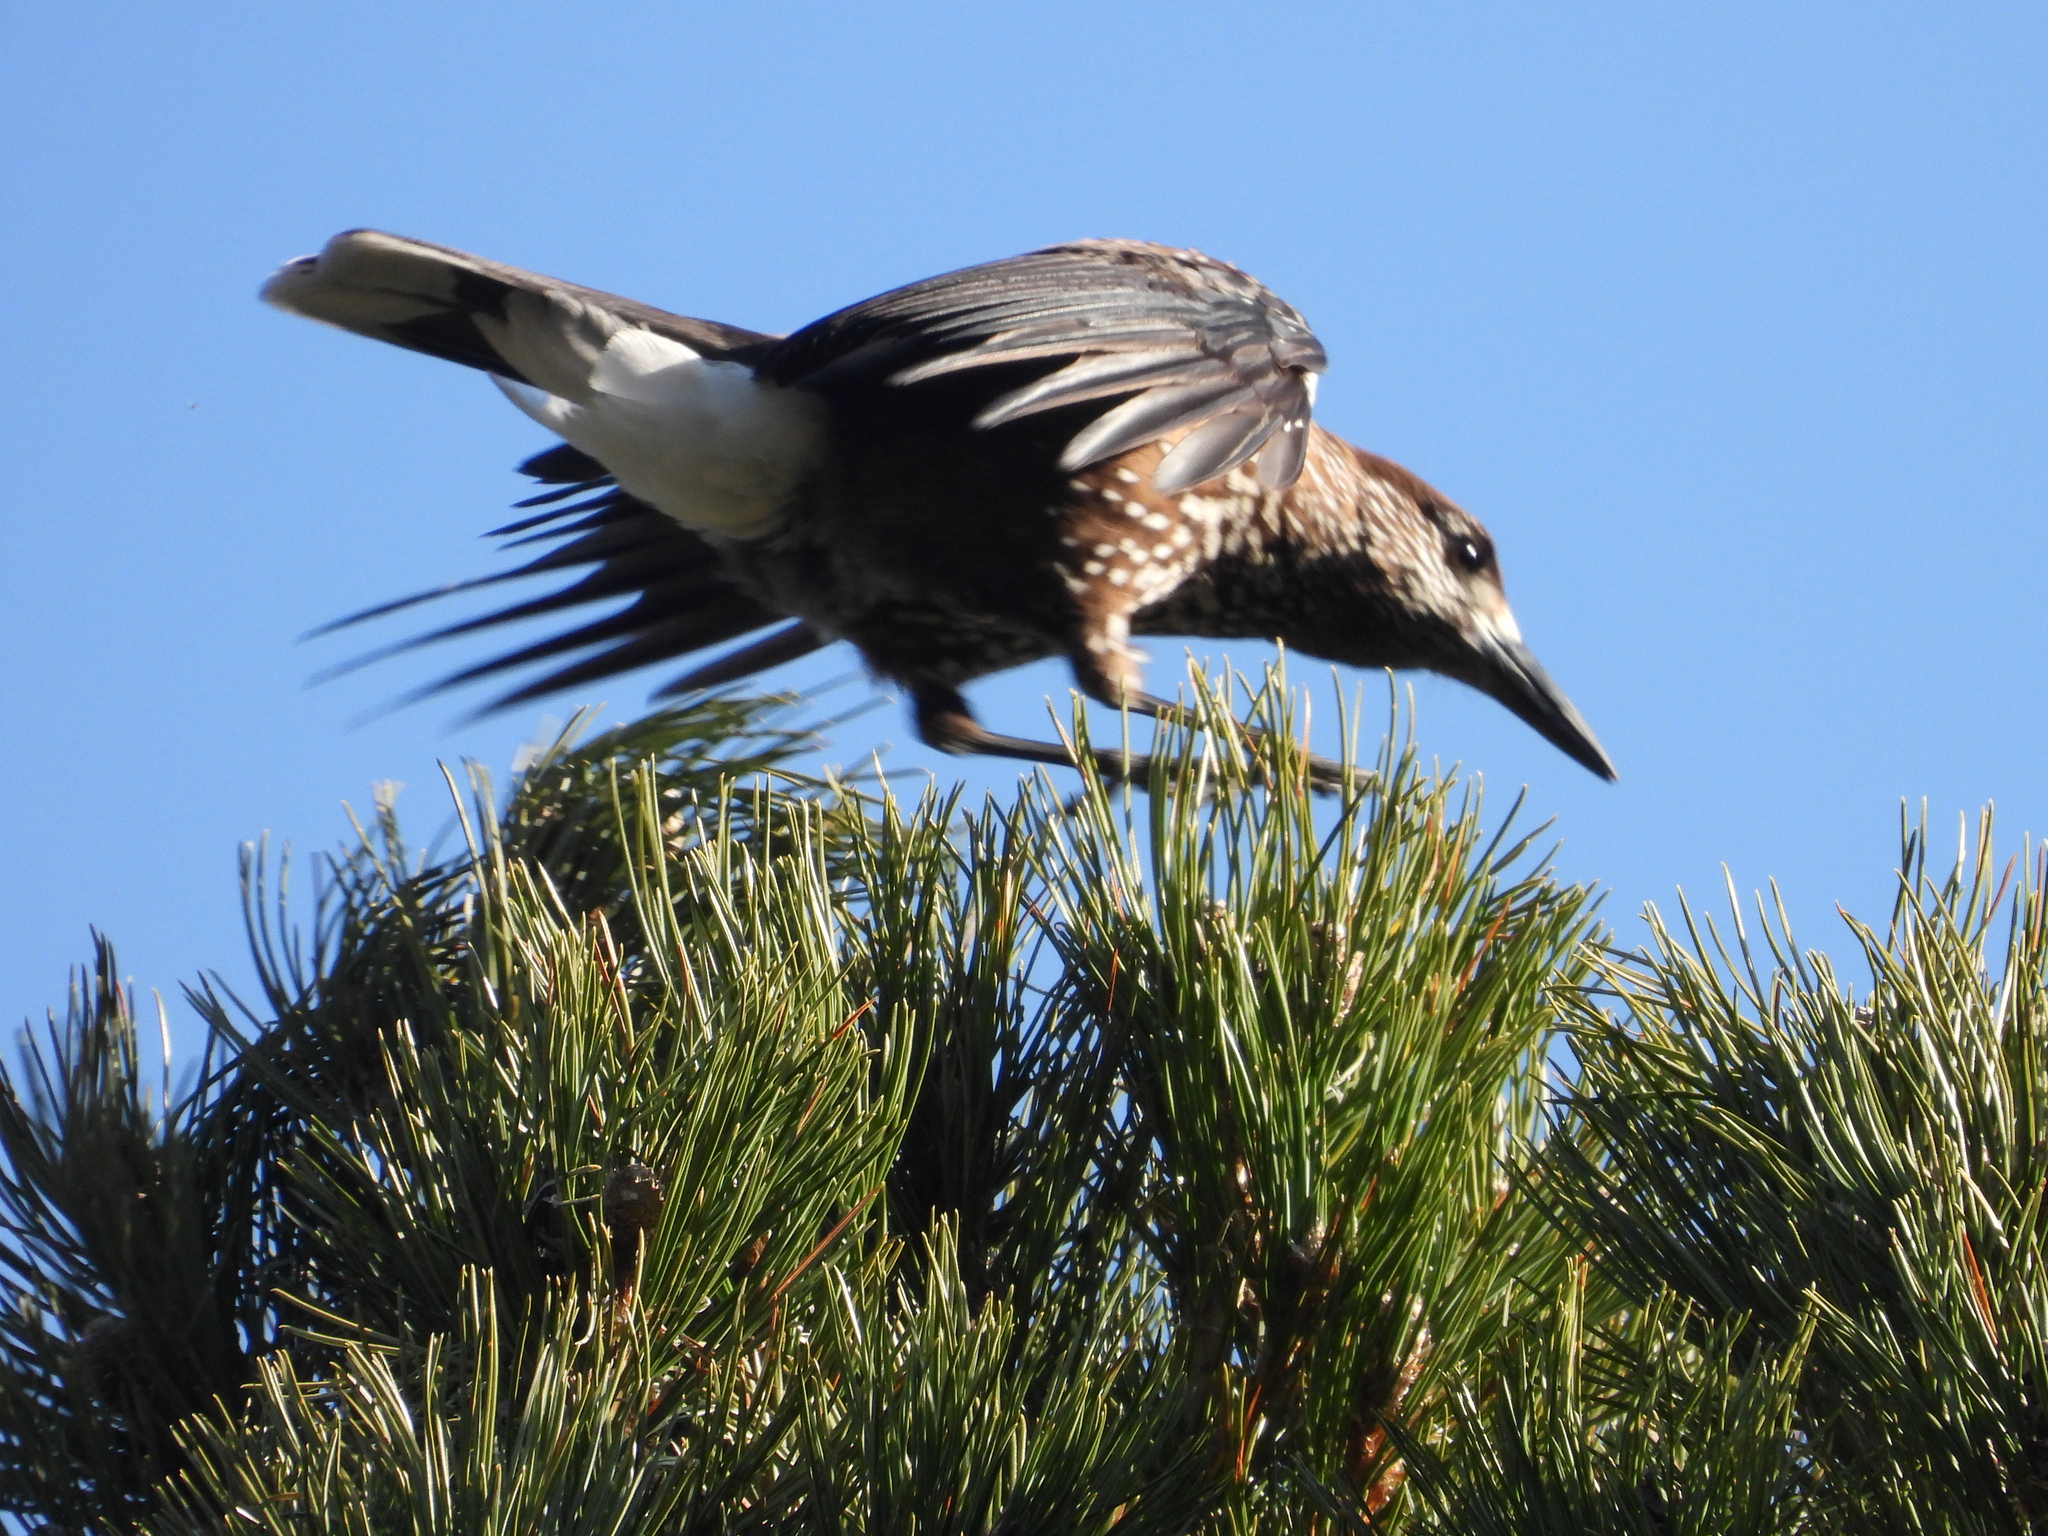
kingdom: Animalia
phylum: Chordata
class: Aves
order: Passeriformes
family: Corvidae
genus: Nucifraga
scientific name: Nucifraga caryocatactes
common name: Spotted nutcracker
